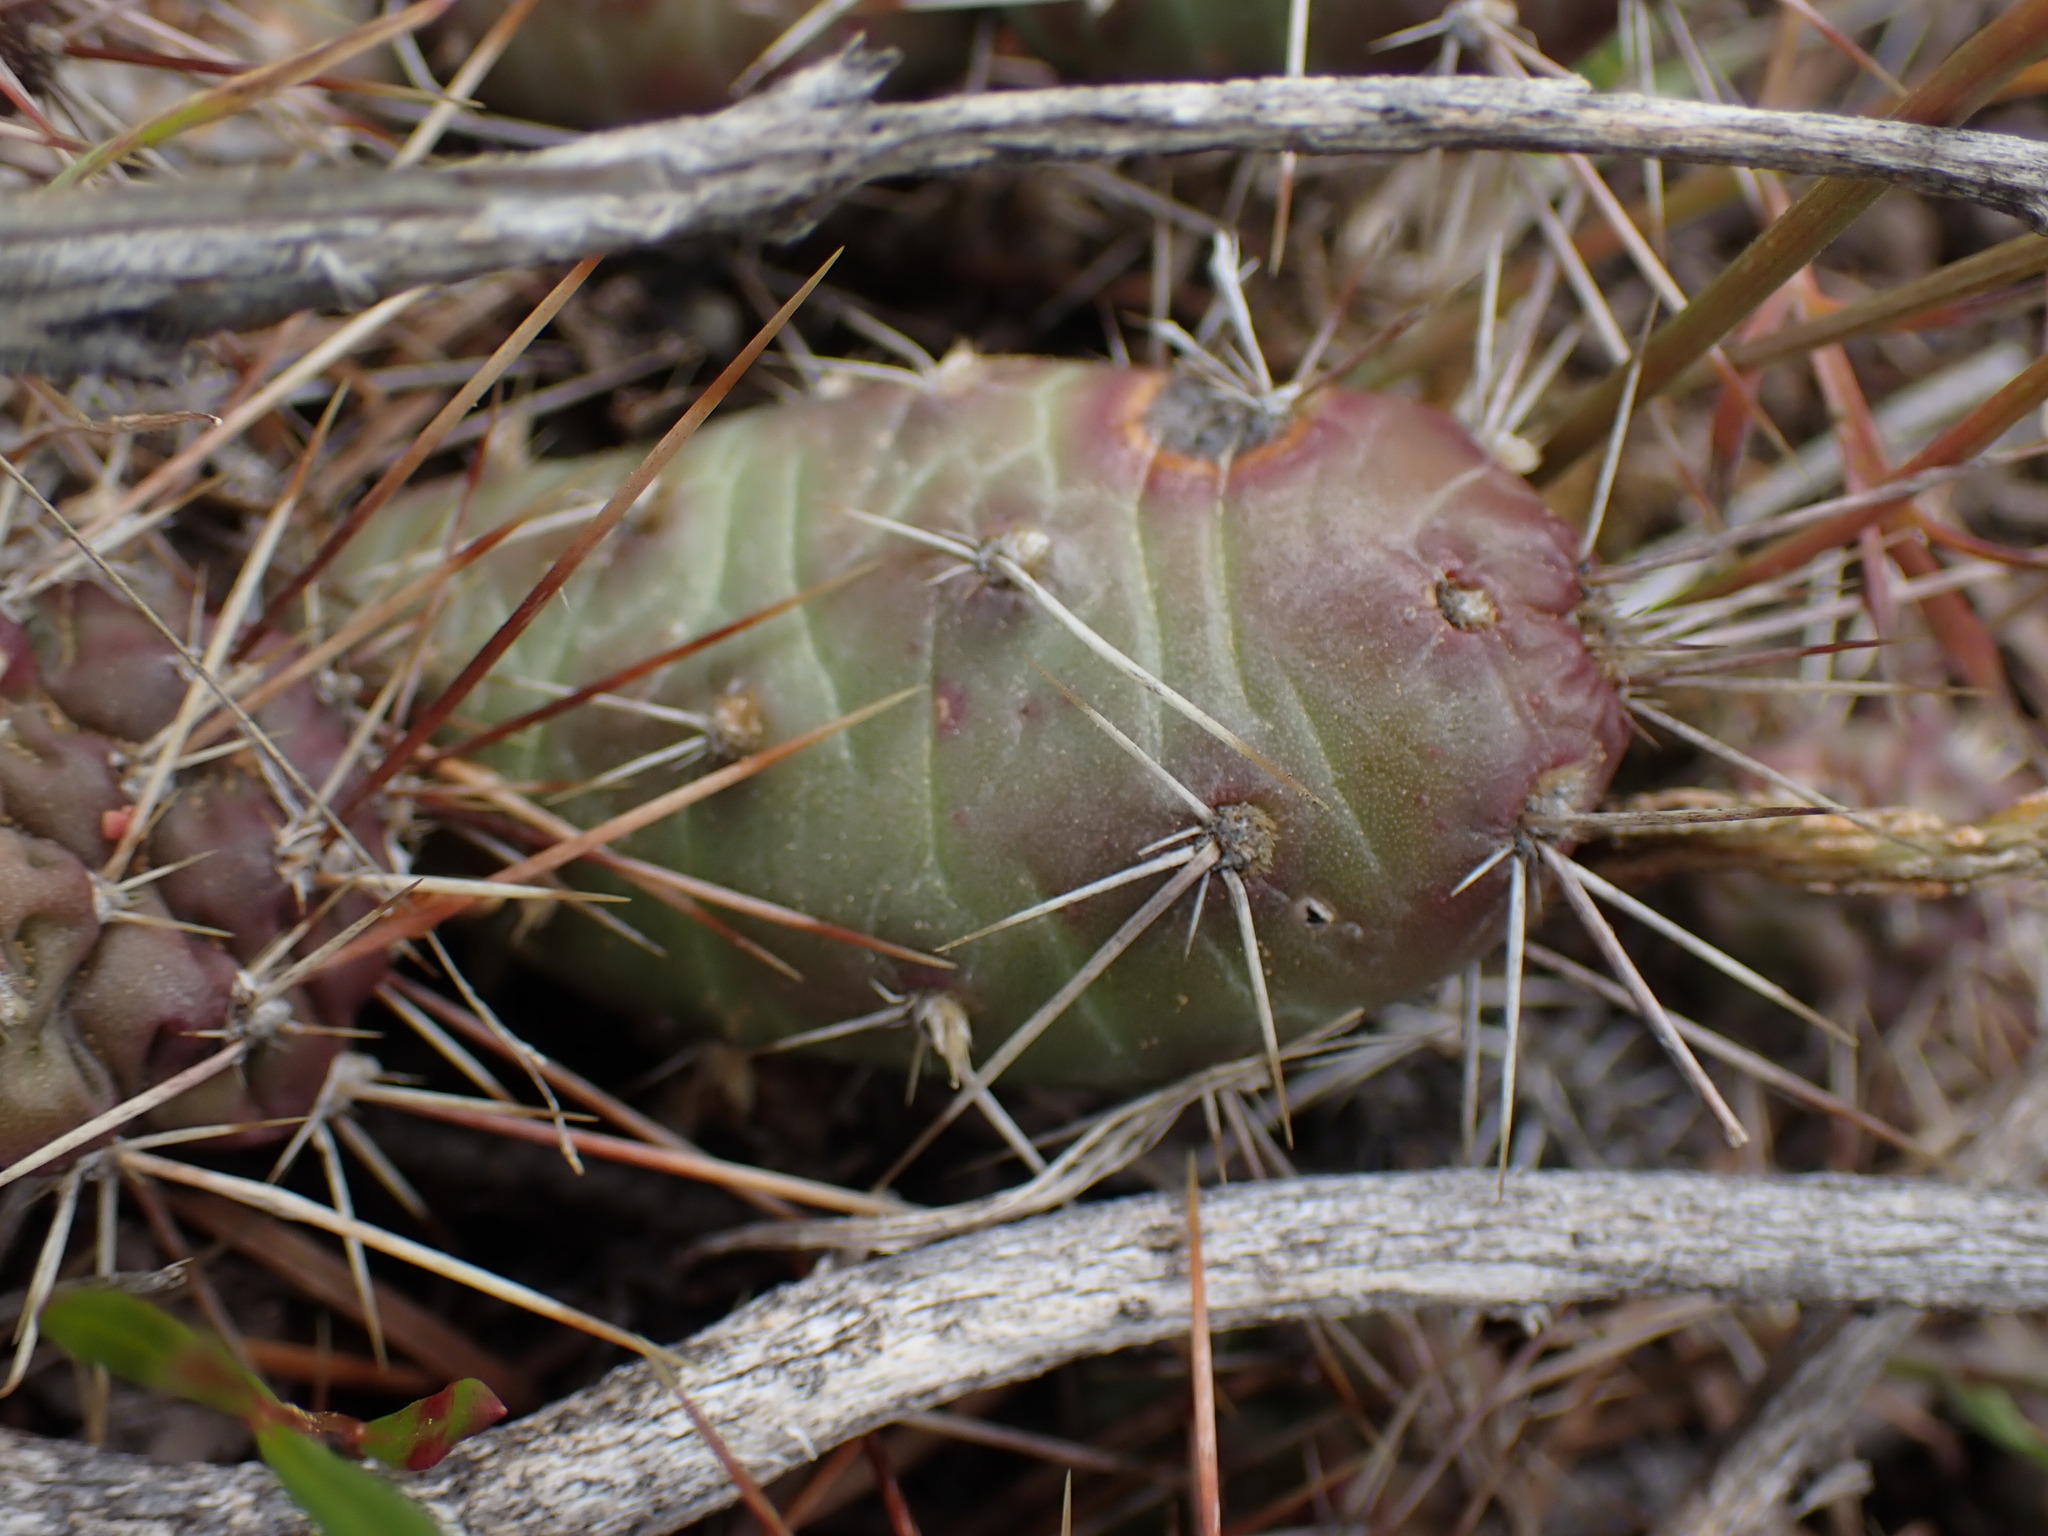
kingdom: Plantae
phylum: Tracheophyta
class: Magnoliopsida
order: Caryophyllales
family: Cactaceae
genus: Opuntia
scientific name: Opuntia fragilis
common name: Brittle cactus
